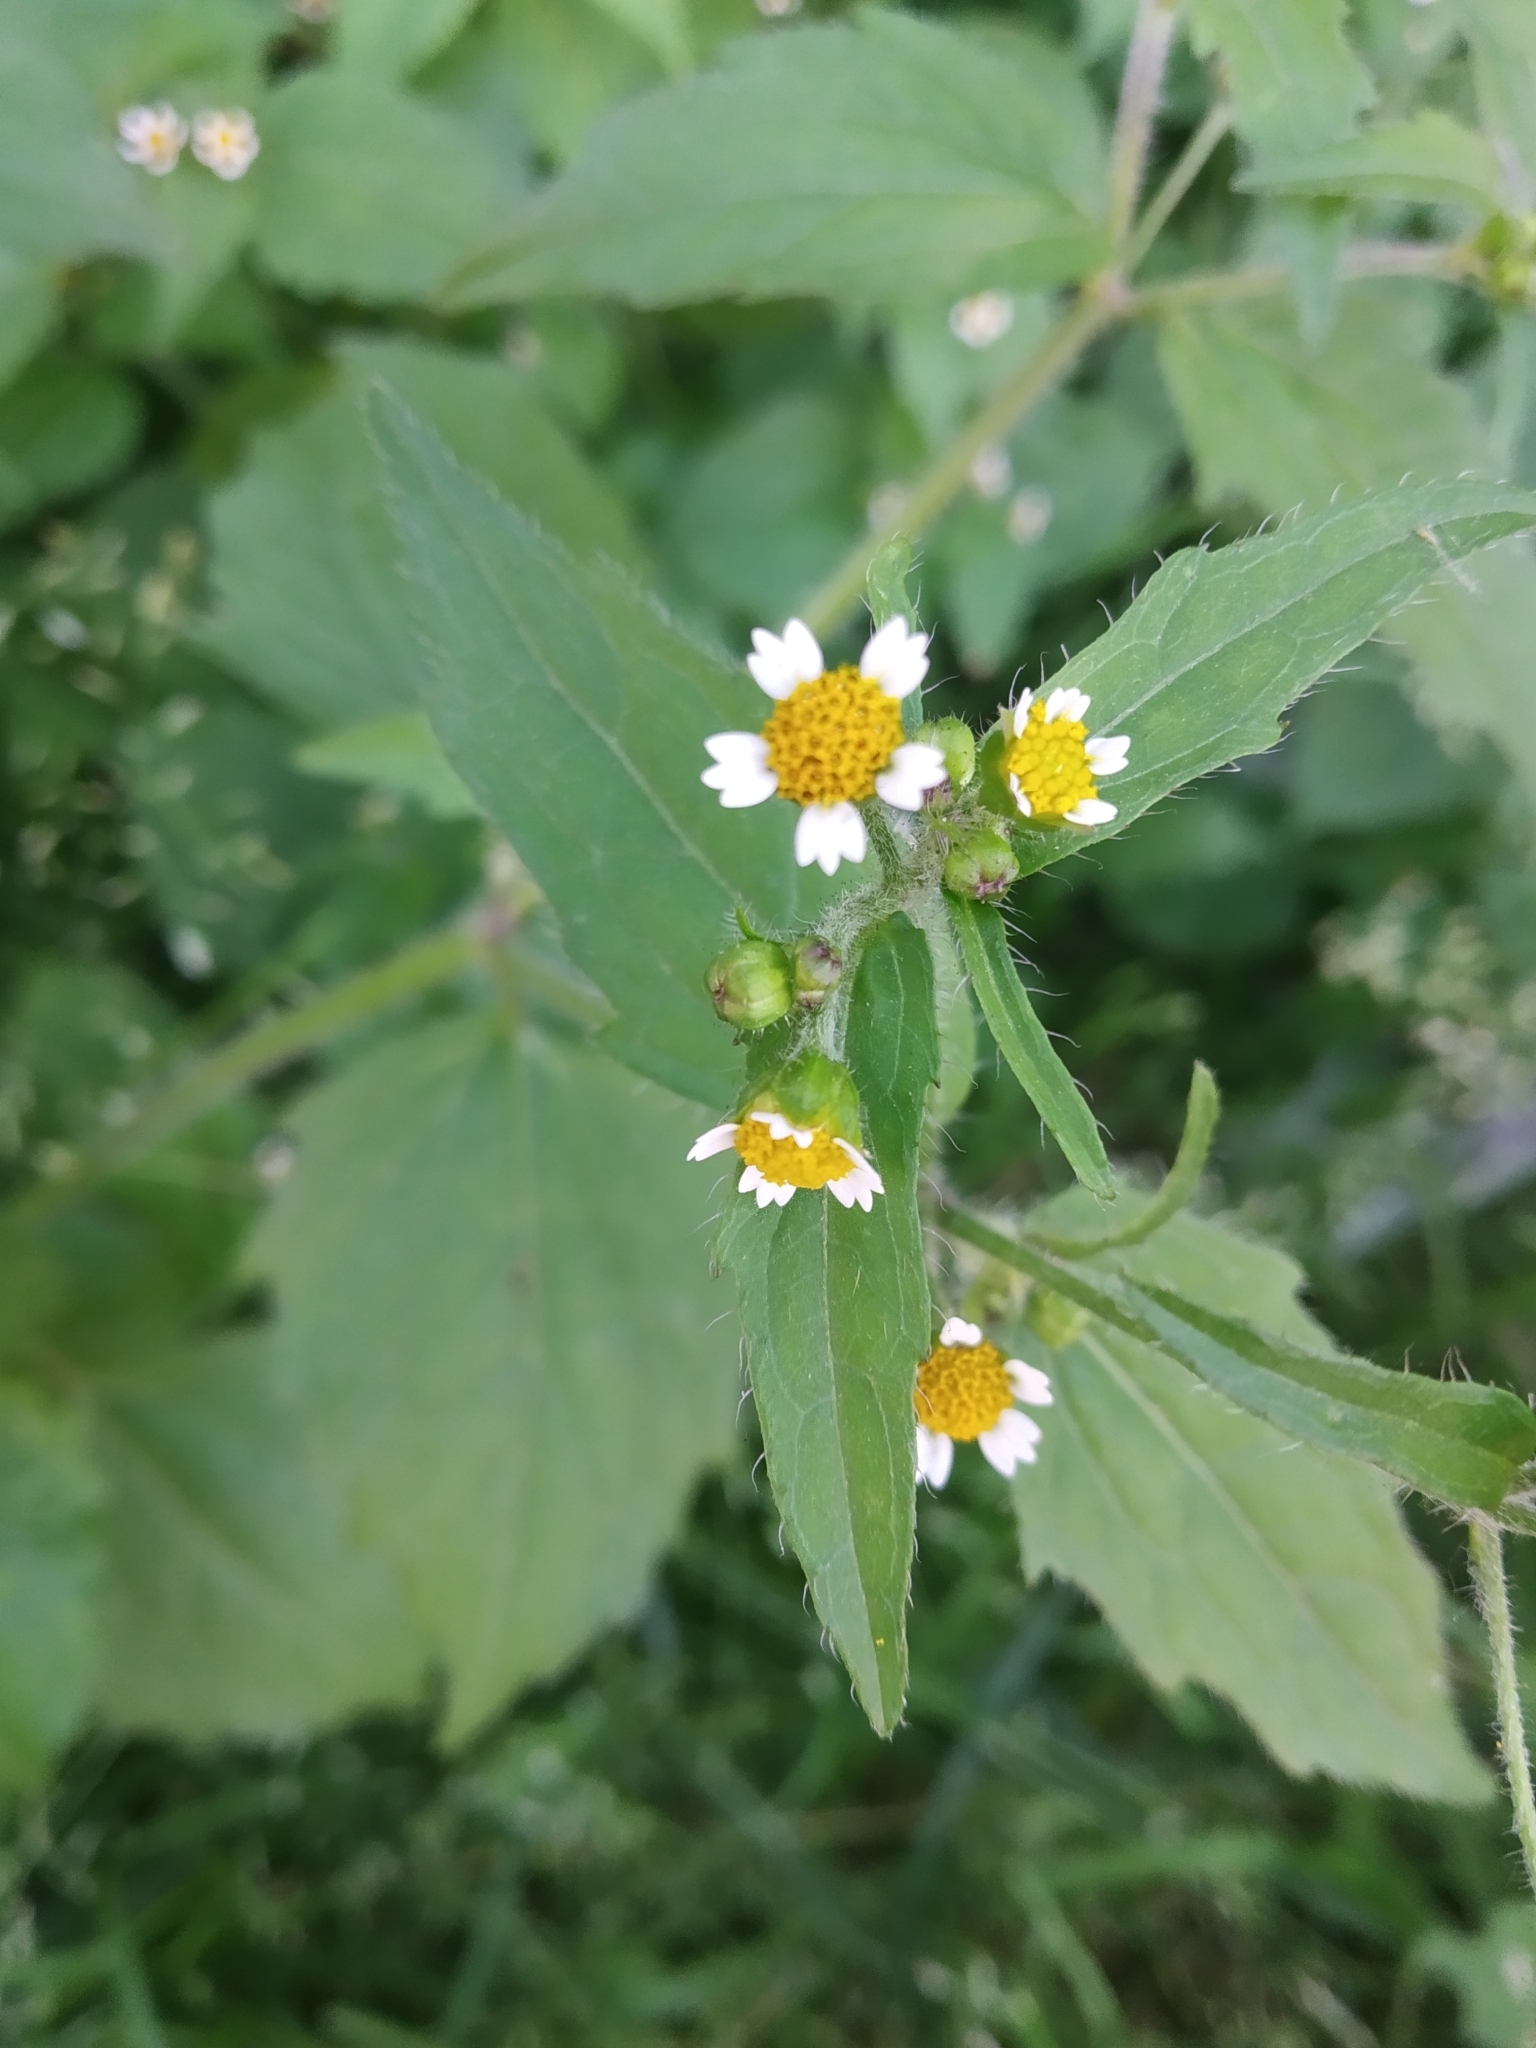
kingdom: Plantae
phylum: Tracheophyta
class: Magnoliopsida
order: Asterales
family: Asteraceae
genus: Galinsoga
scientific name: Galinsoga quadriradiata
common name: Shaggy soldier
